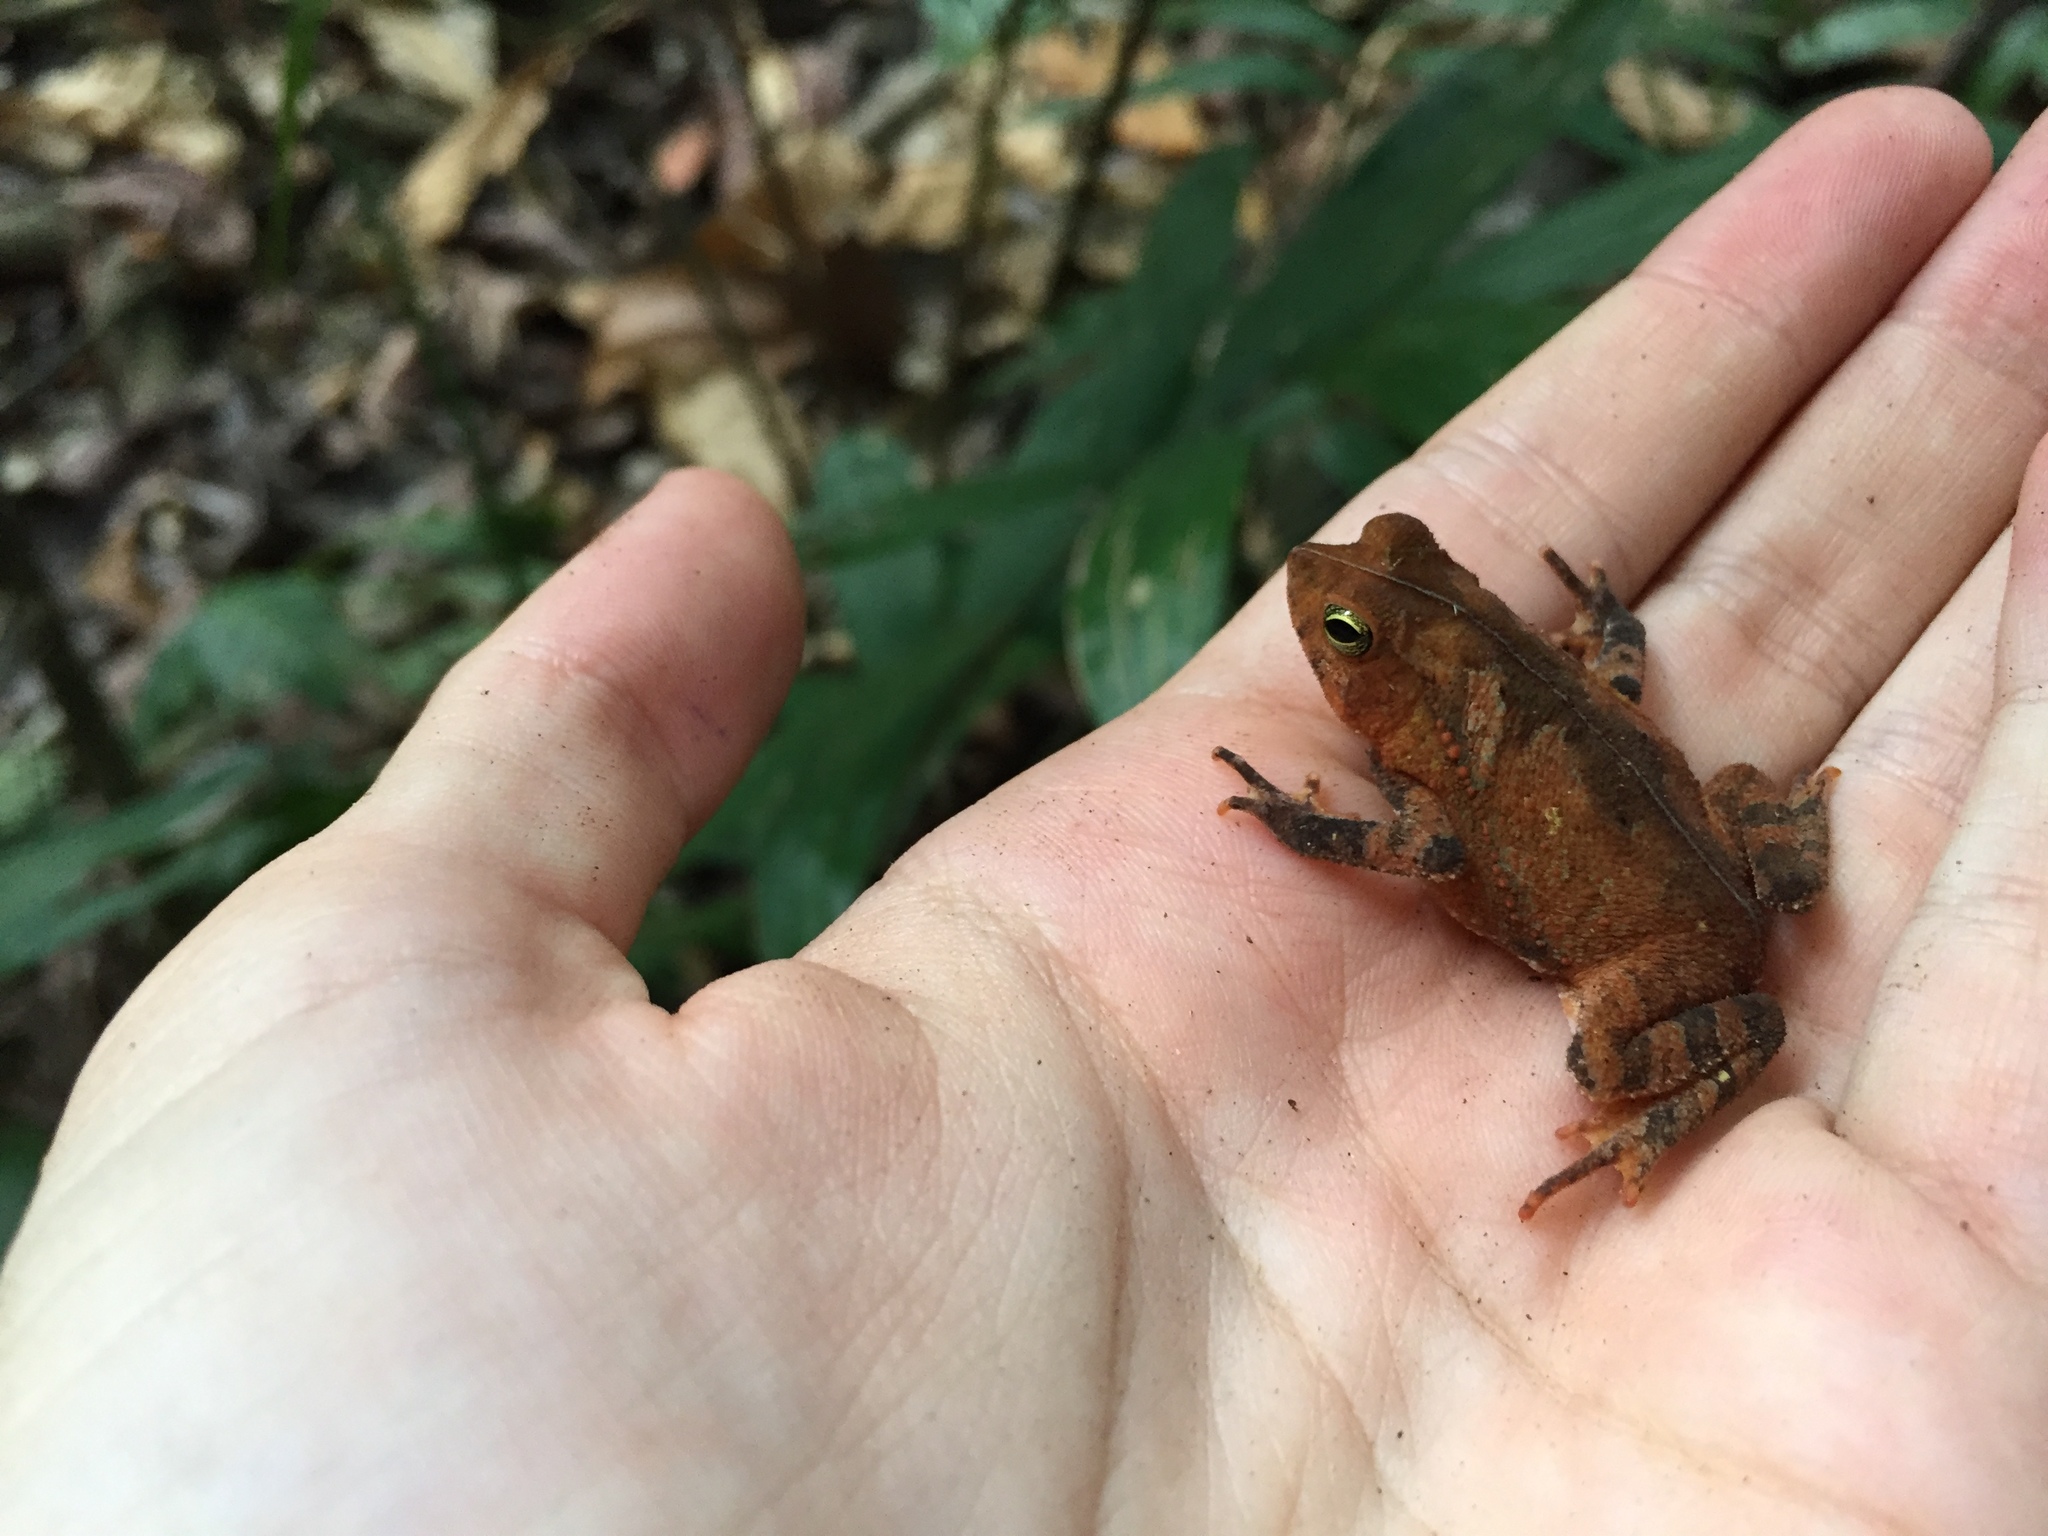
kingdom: Animalia
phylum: Chordata
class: Amphibia
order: Anura
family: Bufonidae
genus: Rhinella
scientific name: Rhinella alata
